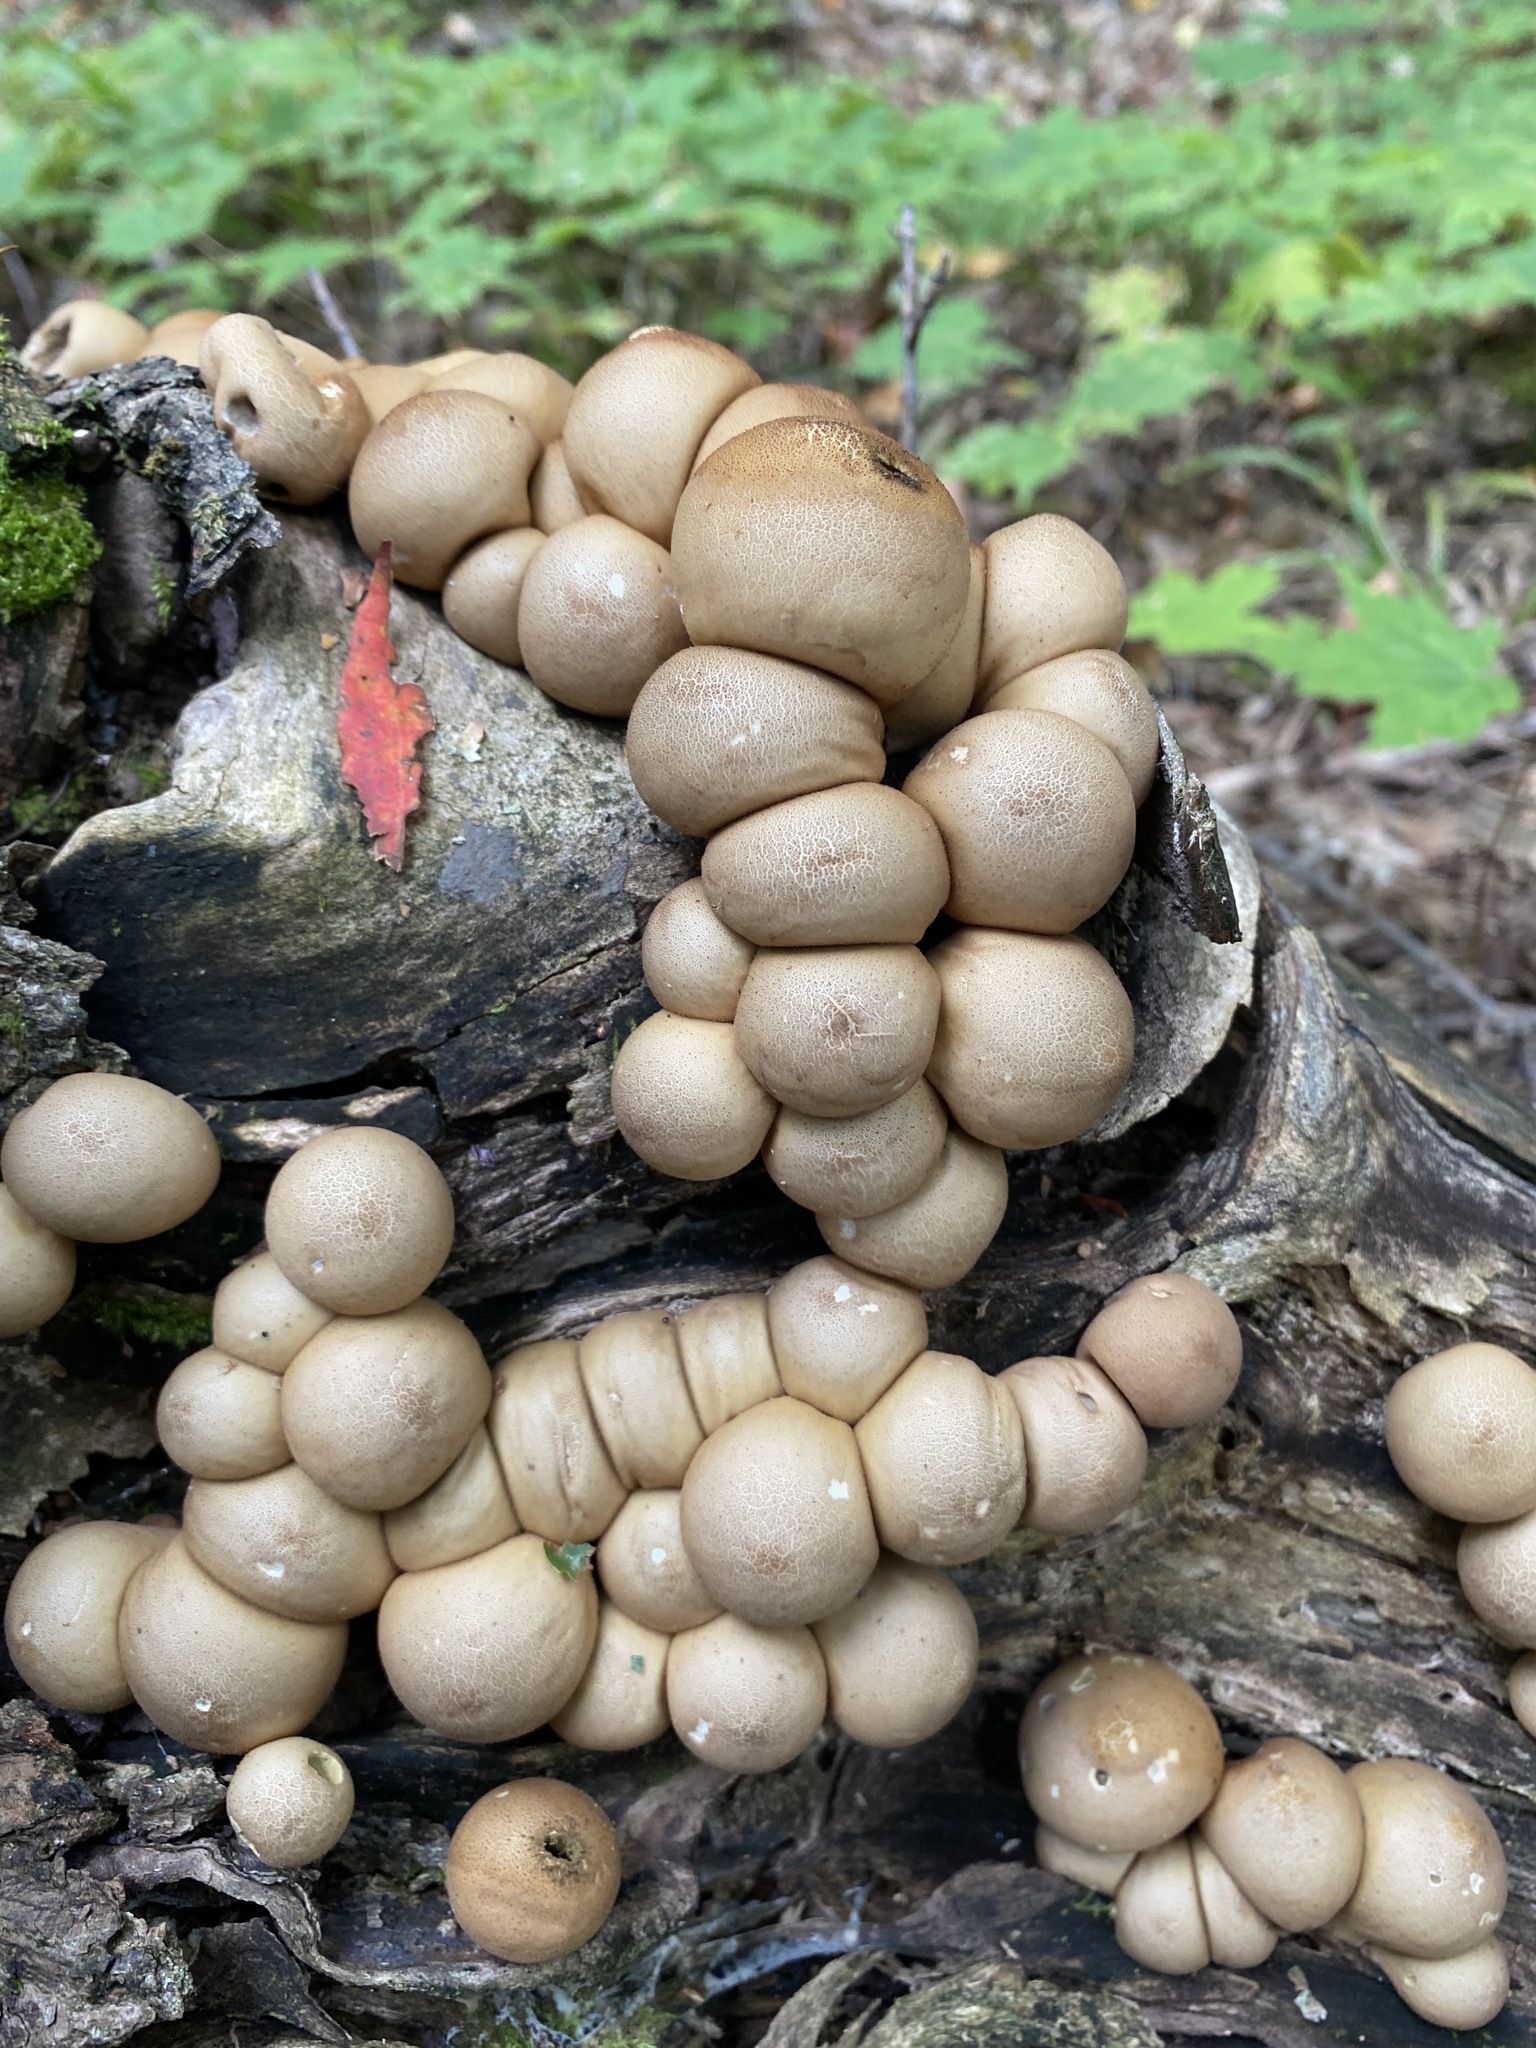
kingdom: Fungi
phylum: Basidiomycota
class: Agaricomycetes
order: Agaricales
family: Lycoperdaceae
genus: Apioperdon
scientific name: Apioperdon pyriforme
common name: Pear-shaped puffball
